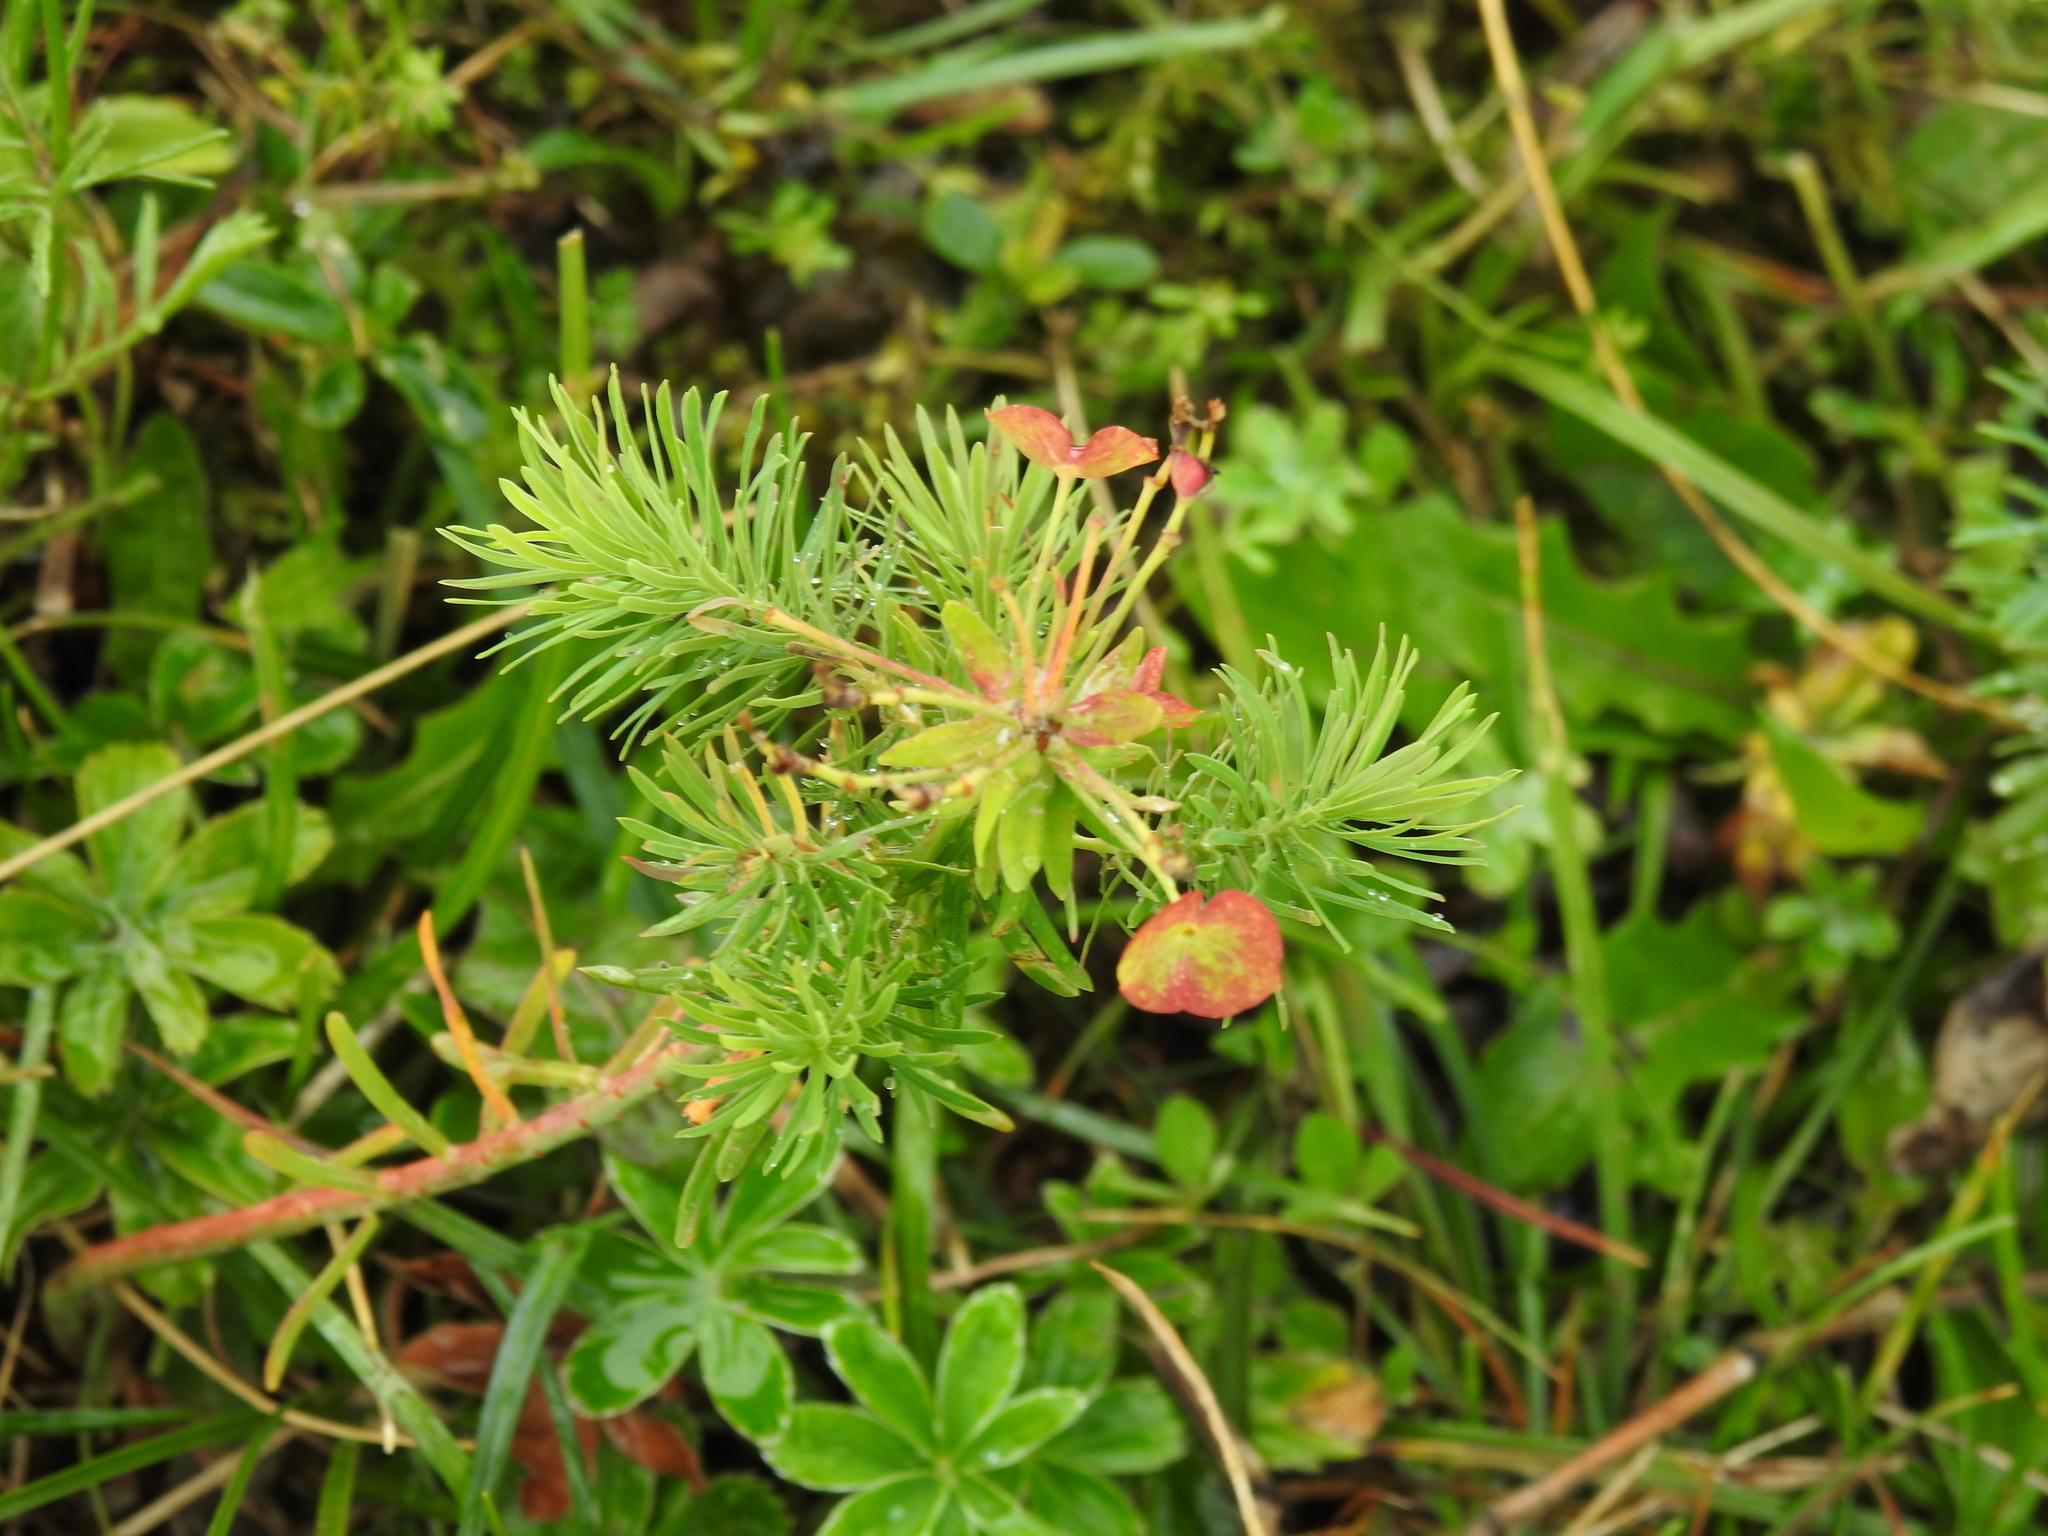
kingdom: Plantae
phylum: Tracheophyta
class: Magnoliopsida
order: Malpighiales
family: Euphorbiaceae
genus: Euphorbia
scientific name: Euphorbia cyparissias
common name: Cypress spurge
